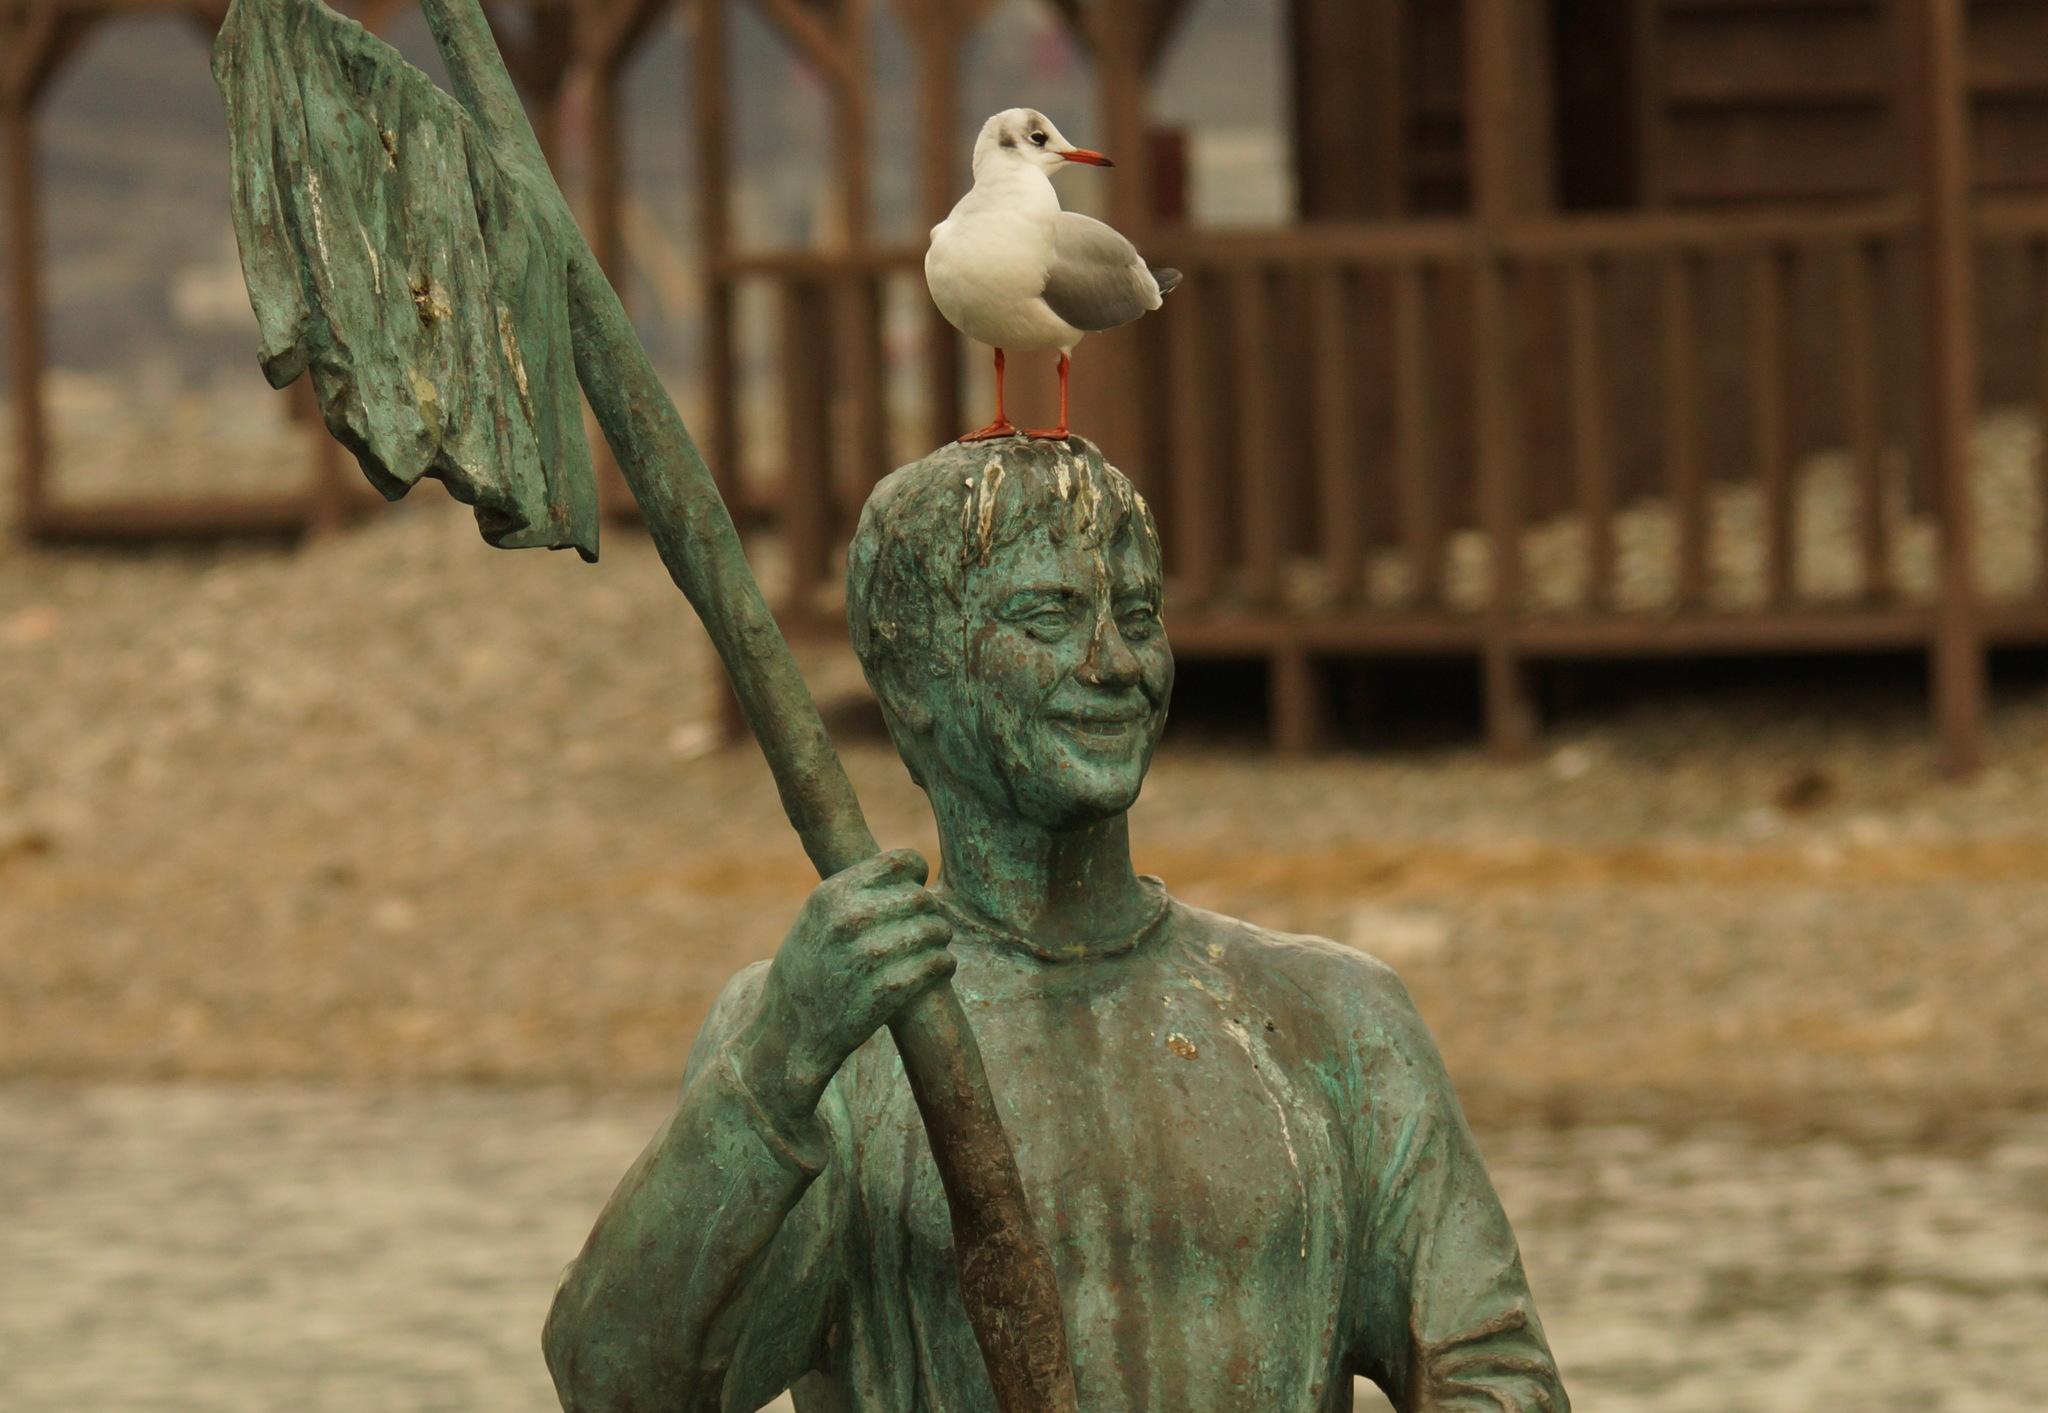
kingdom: Animalia
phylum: Chordata
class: Aves
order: Charadriiformes
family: Laridae
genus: Chroicocephalus
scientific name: Chroicocephalus ridibundus
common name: Black-headed gull
